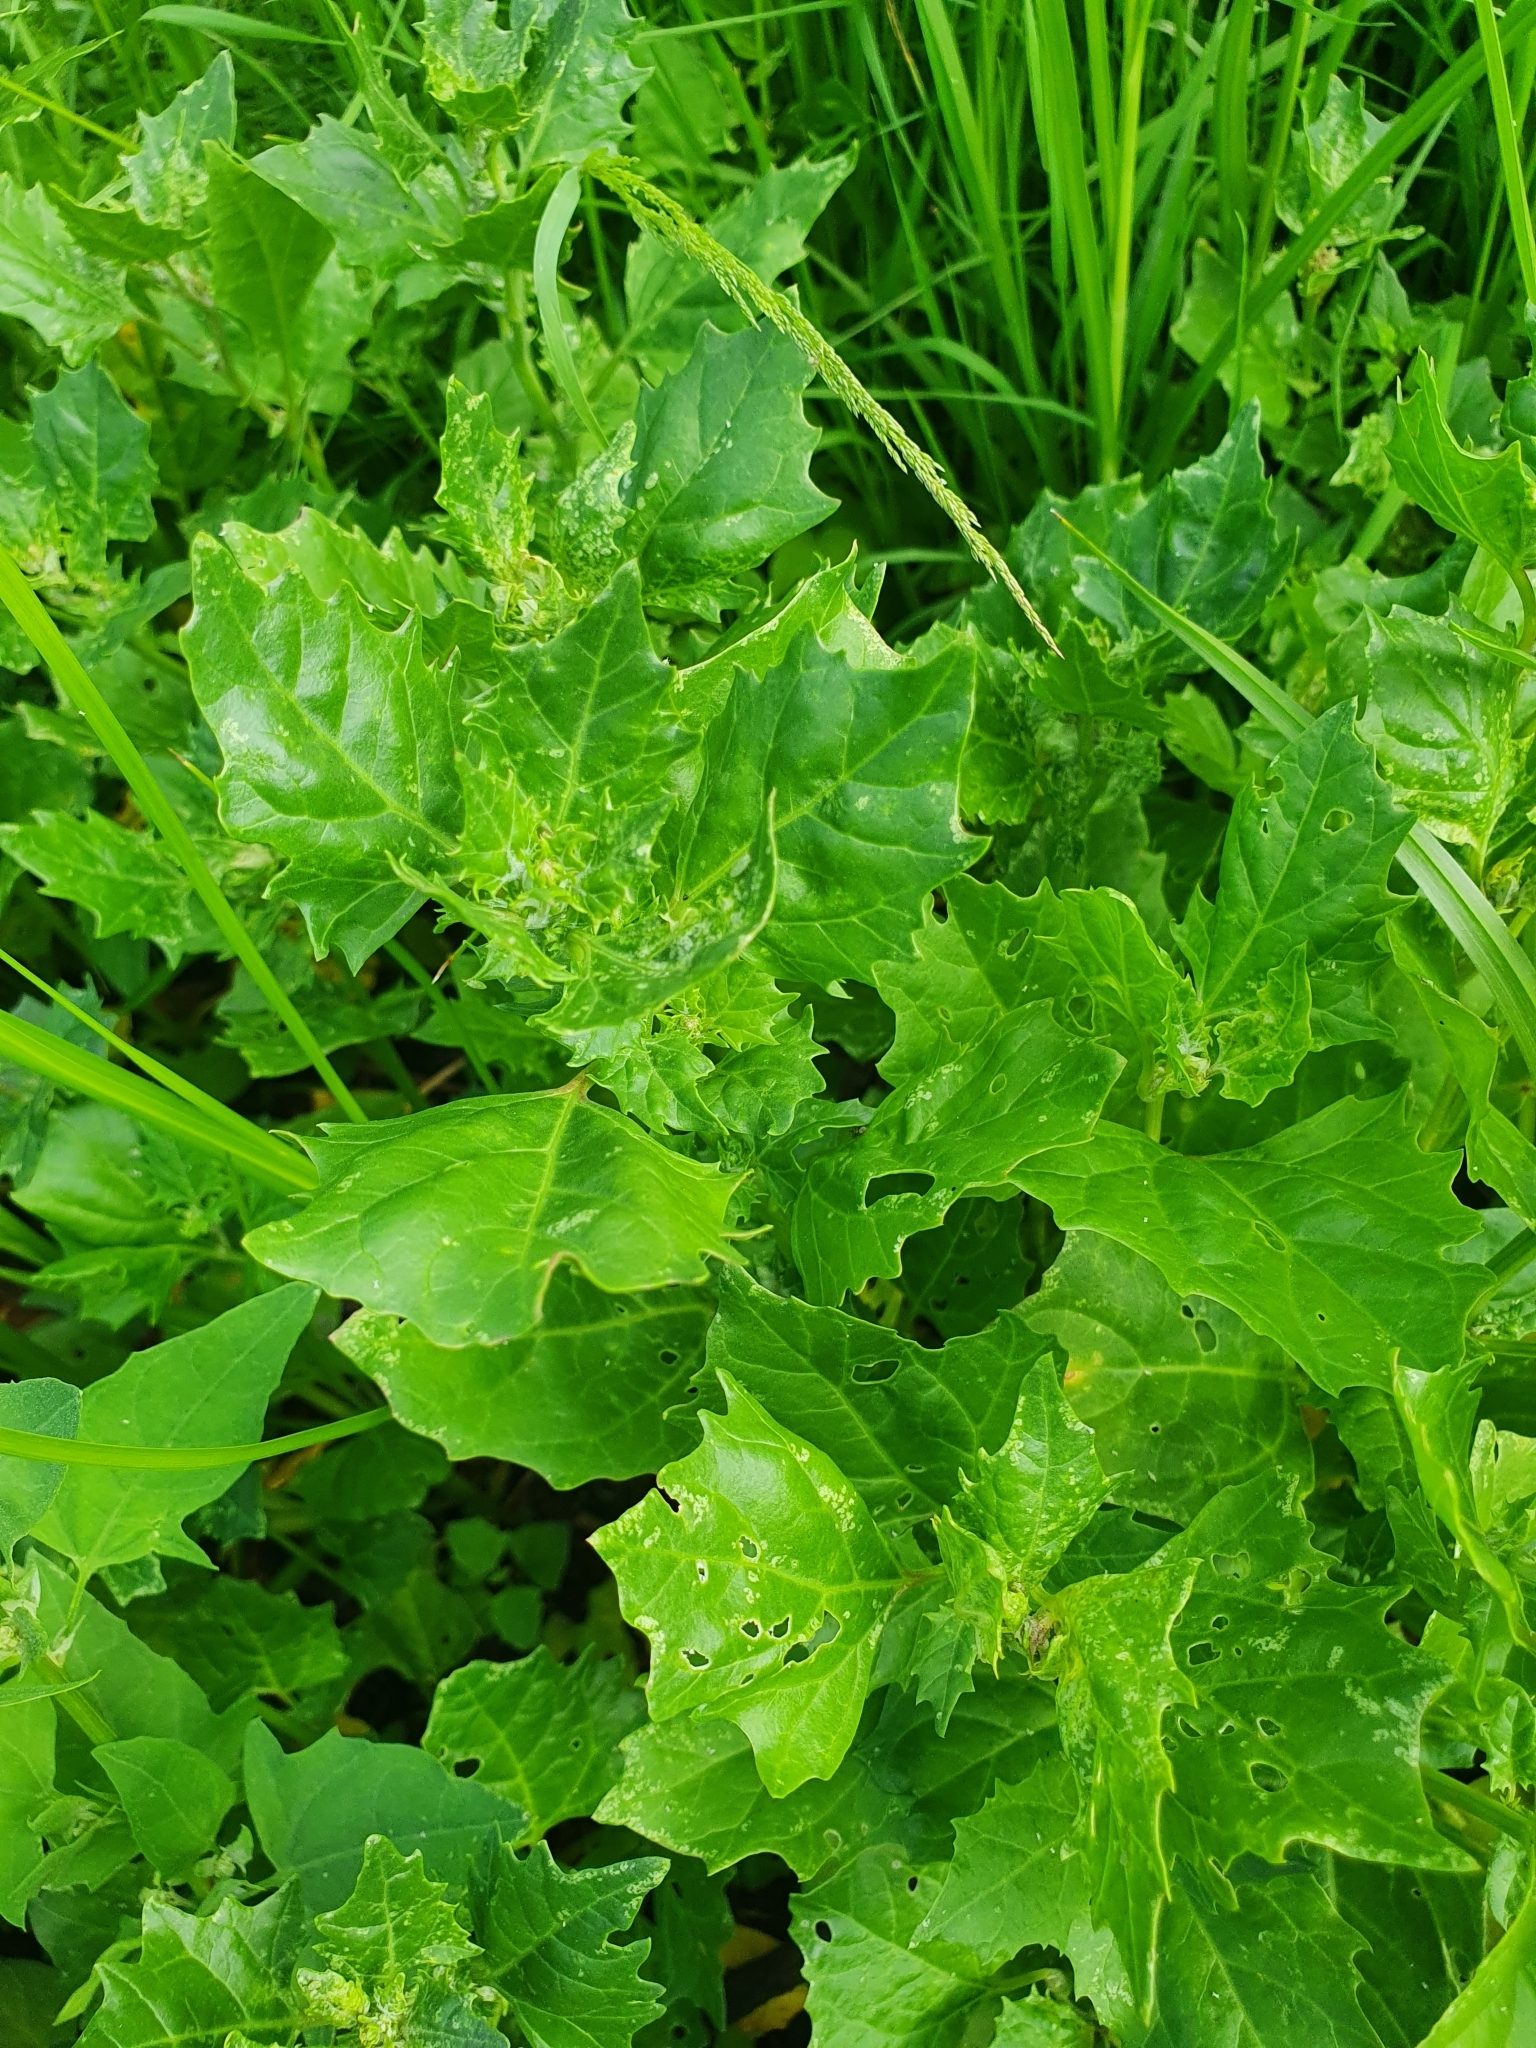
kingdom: Plantae
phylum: Tracheophyta
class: Magnoliopsida
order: Caryophyllales
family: Amaranthaceae
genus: Oxybasis
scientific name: Oxybasis rubra
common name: Red goosefoot
